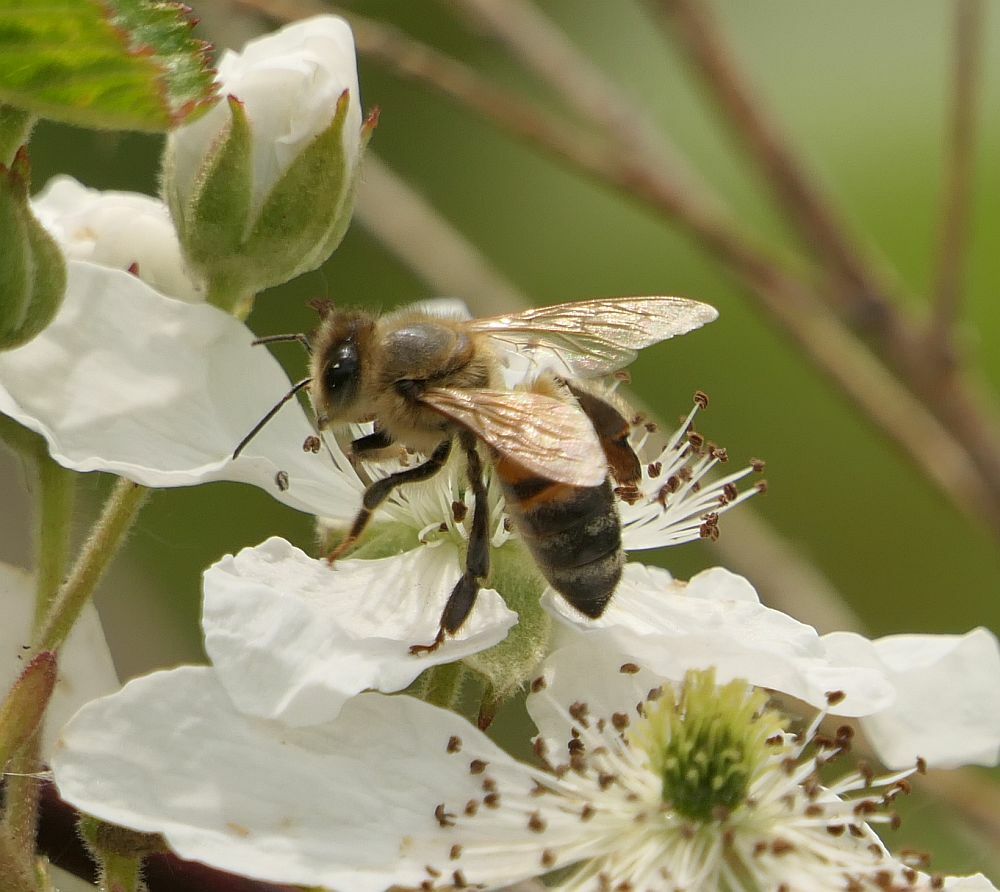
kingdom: Animalia
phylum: Arthropoda
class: Insecta
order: Hymenoptera
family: Apidae
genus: Apis
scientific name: Apis mellifera
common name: Honey bee
